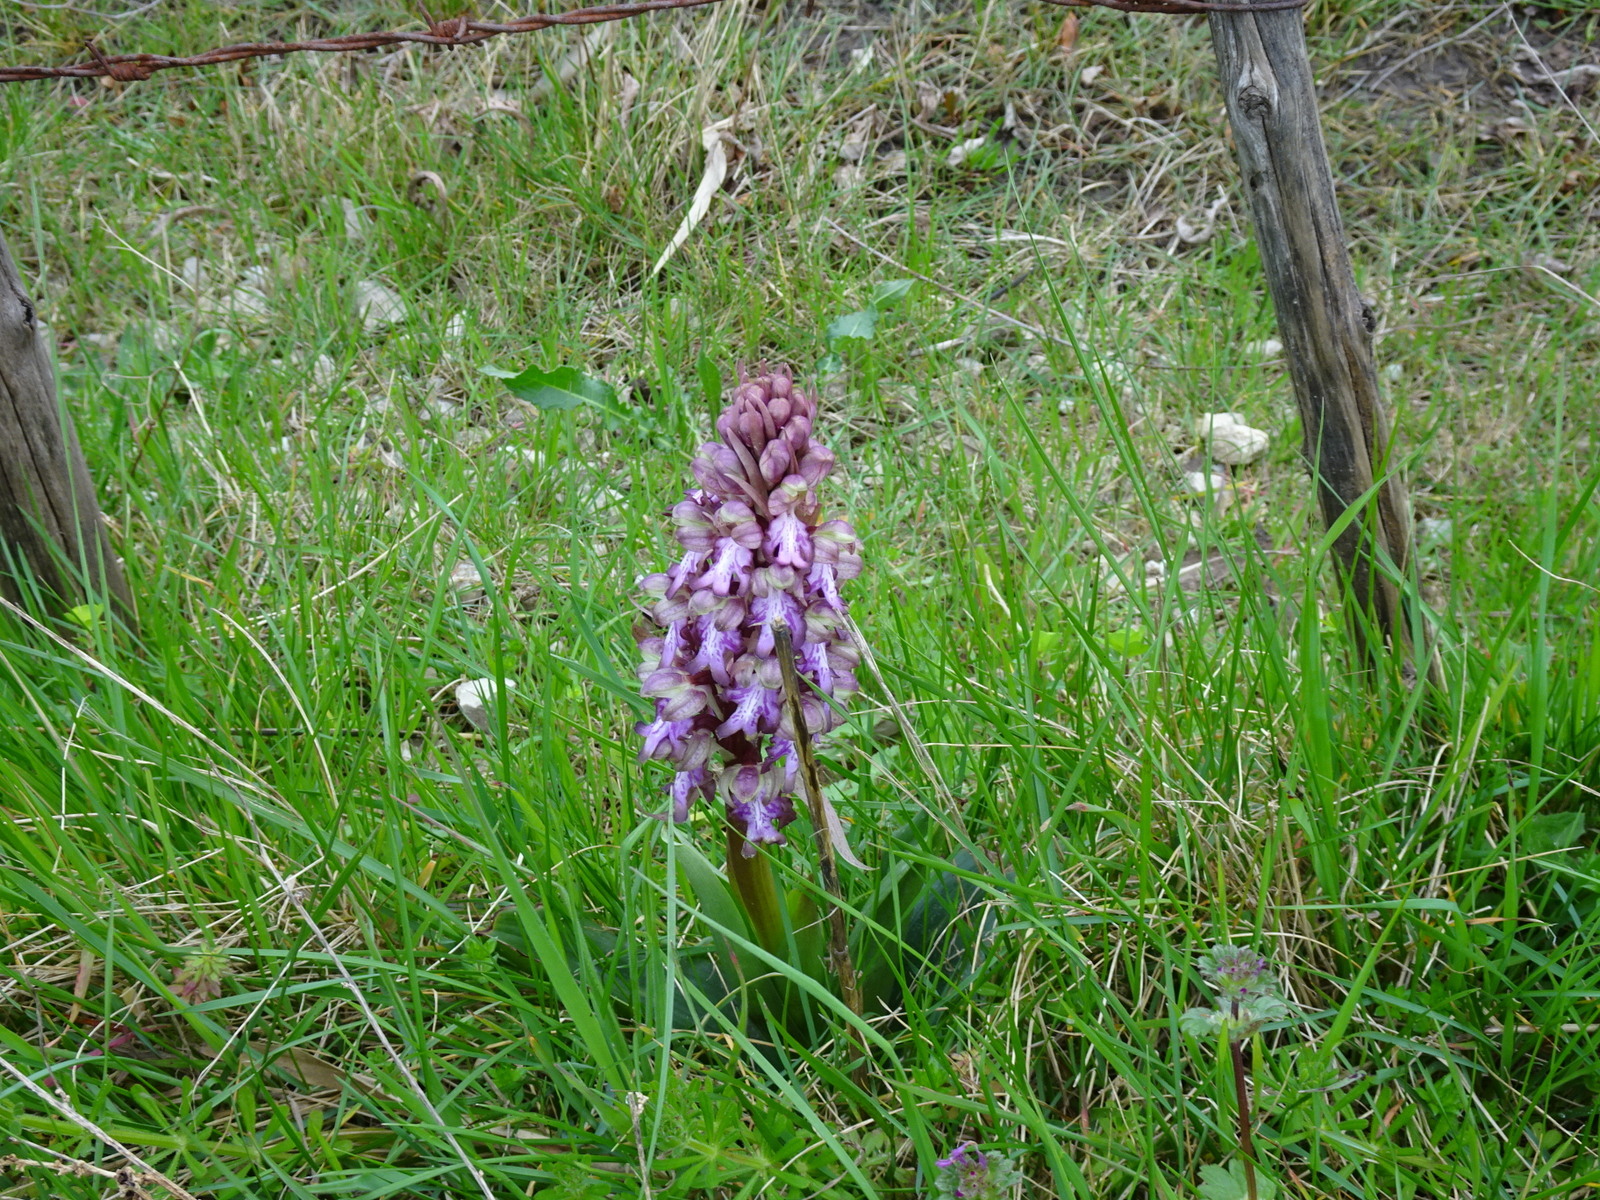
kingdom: Plantae
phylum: Tracheophyta
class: Liliopsida
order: Asparagales
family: Orchidaceae
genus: Himantoglossum
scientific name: Himantoglossum robertianum
